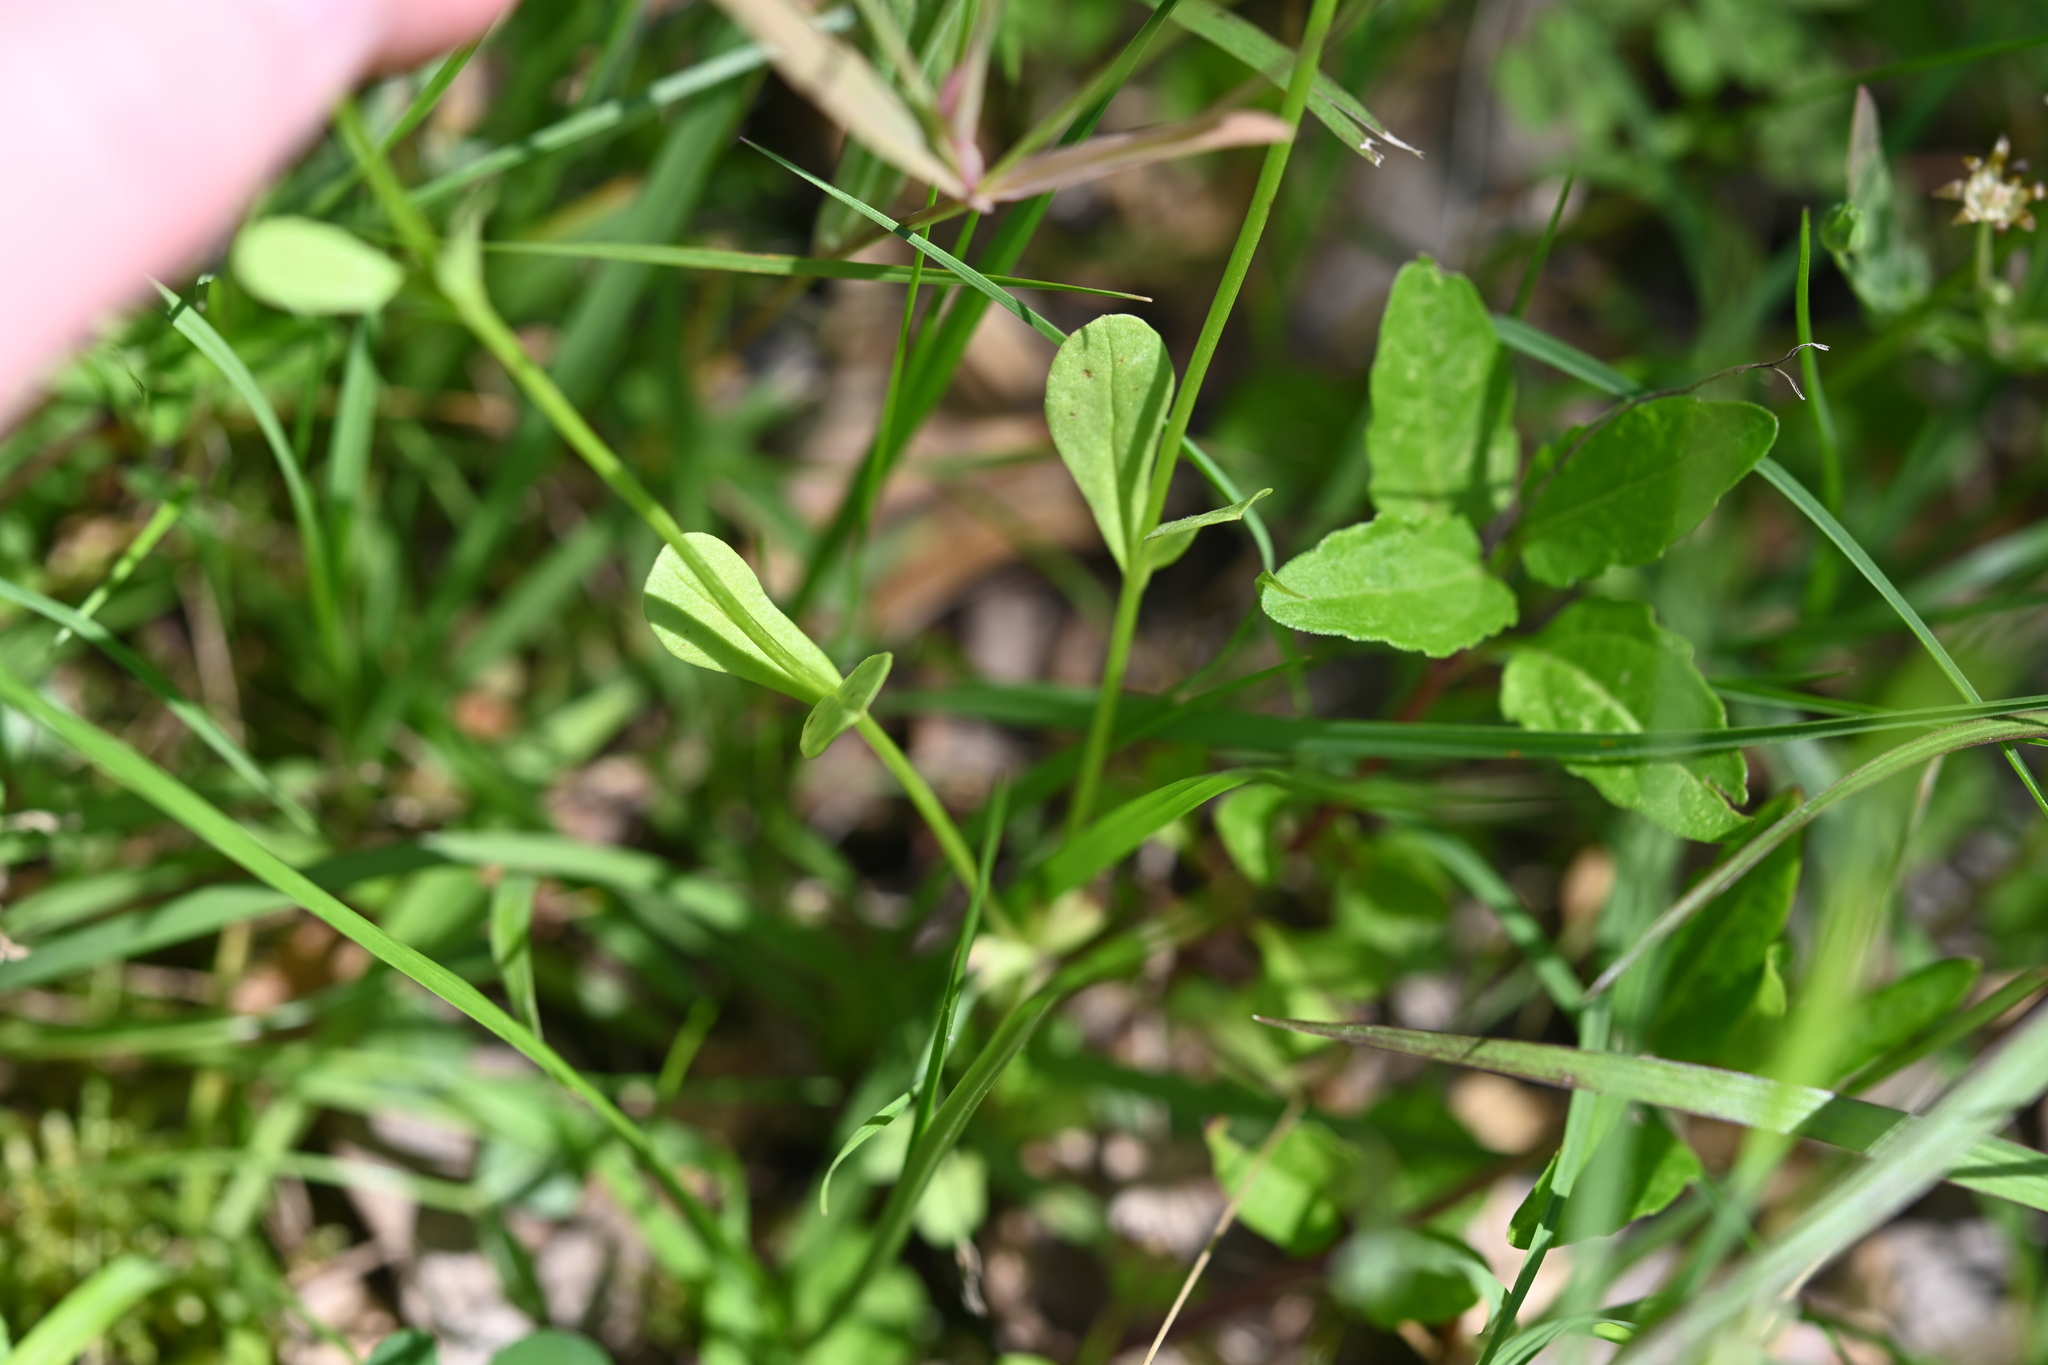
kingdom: Plantae
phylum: Tracheophyta
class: Magnoliopsida
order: Dipsacales
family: Caprifoliaceae
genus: Valerianella
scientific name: Valerianella radiata
